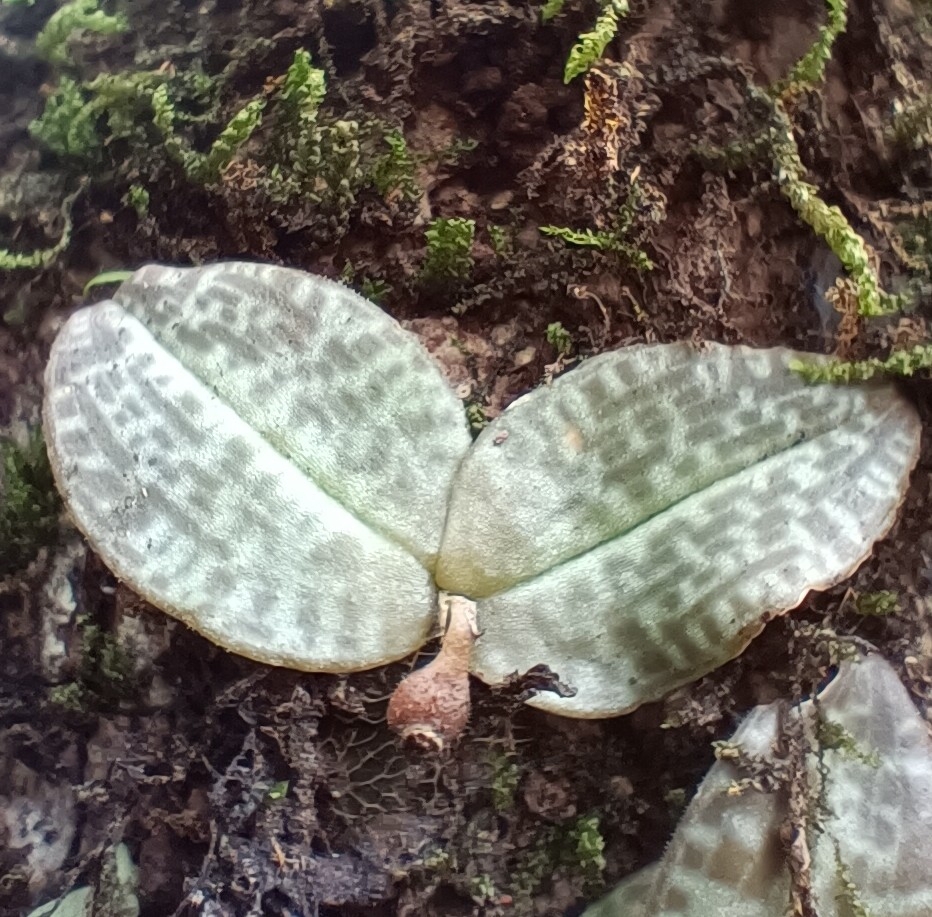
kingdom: Plantae
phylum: Tracheophyta
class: Liliopsida
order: Asparagales
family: Orchidaceae
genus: Porpax
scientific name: Porpax jerdoniana
